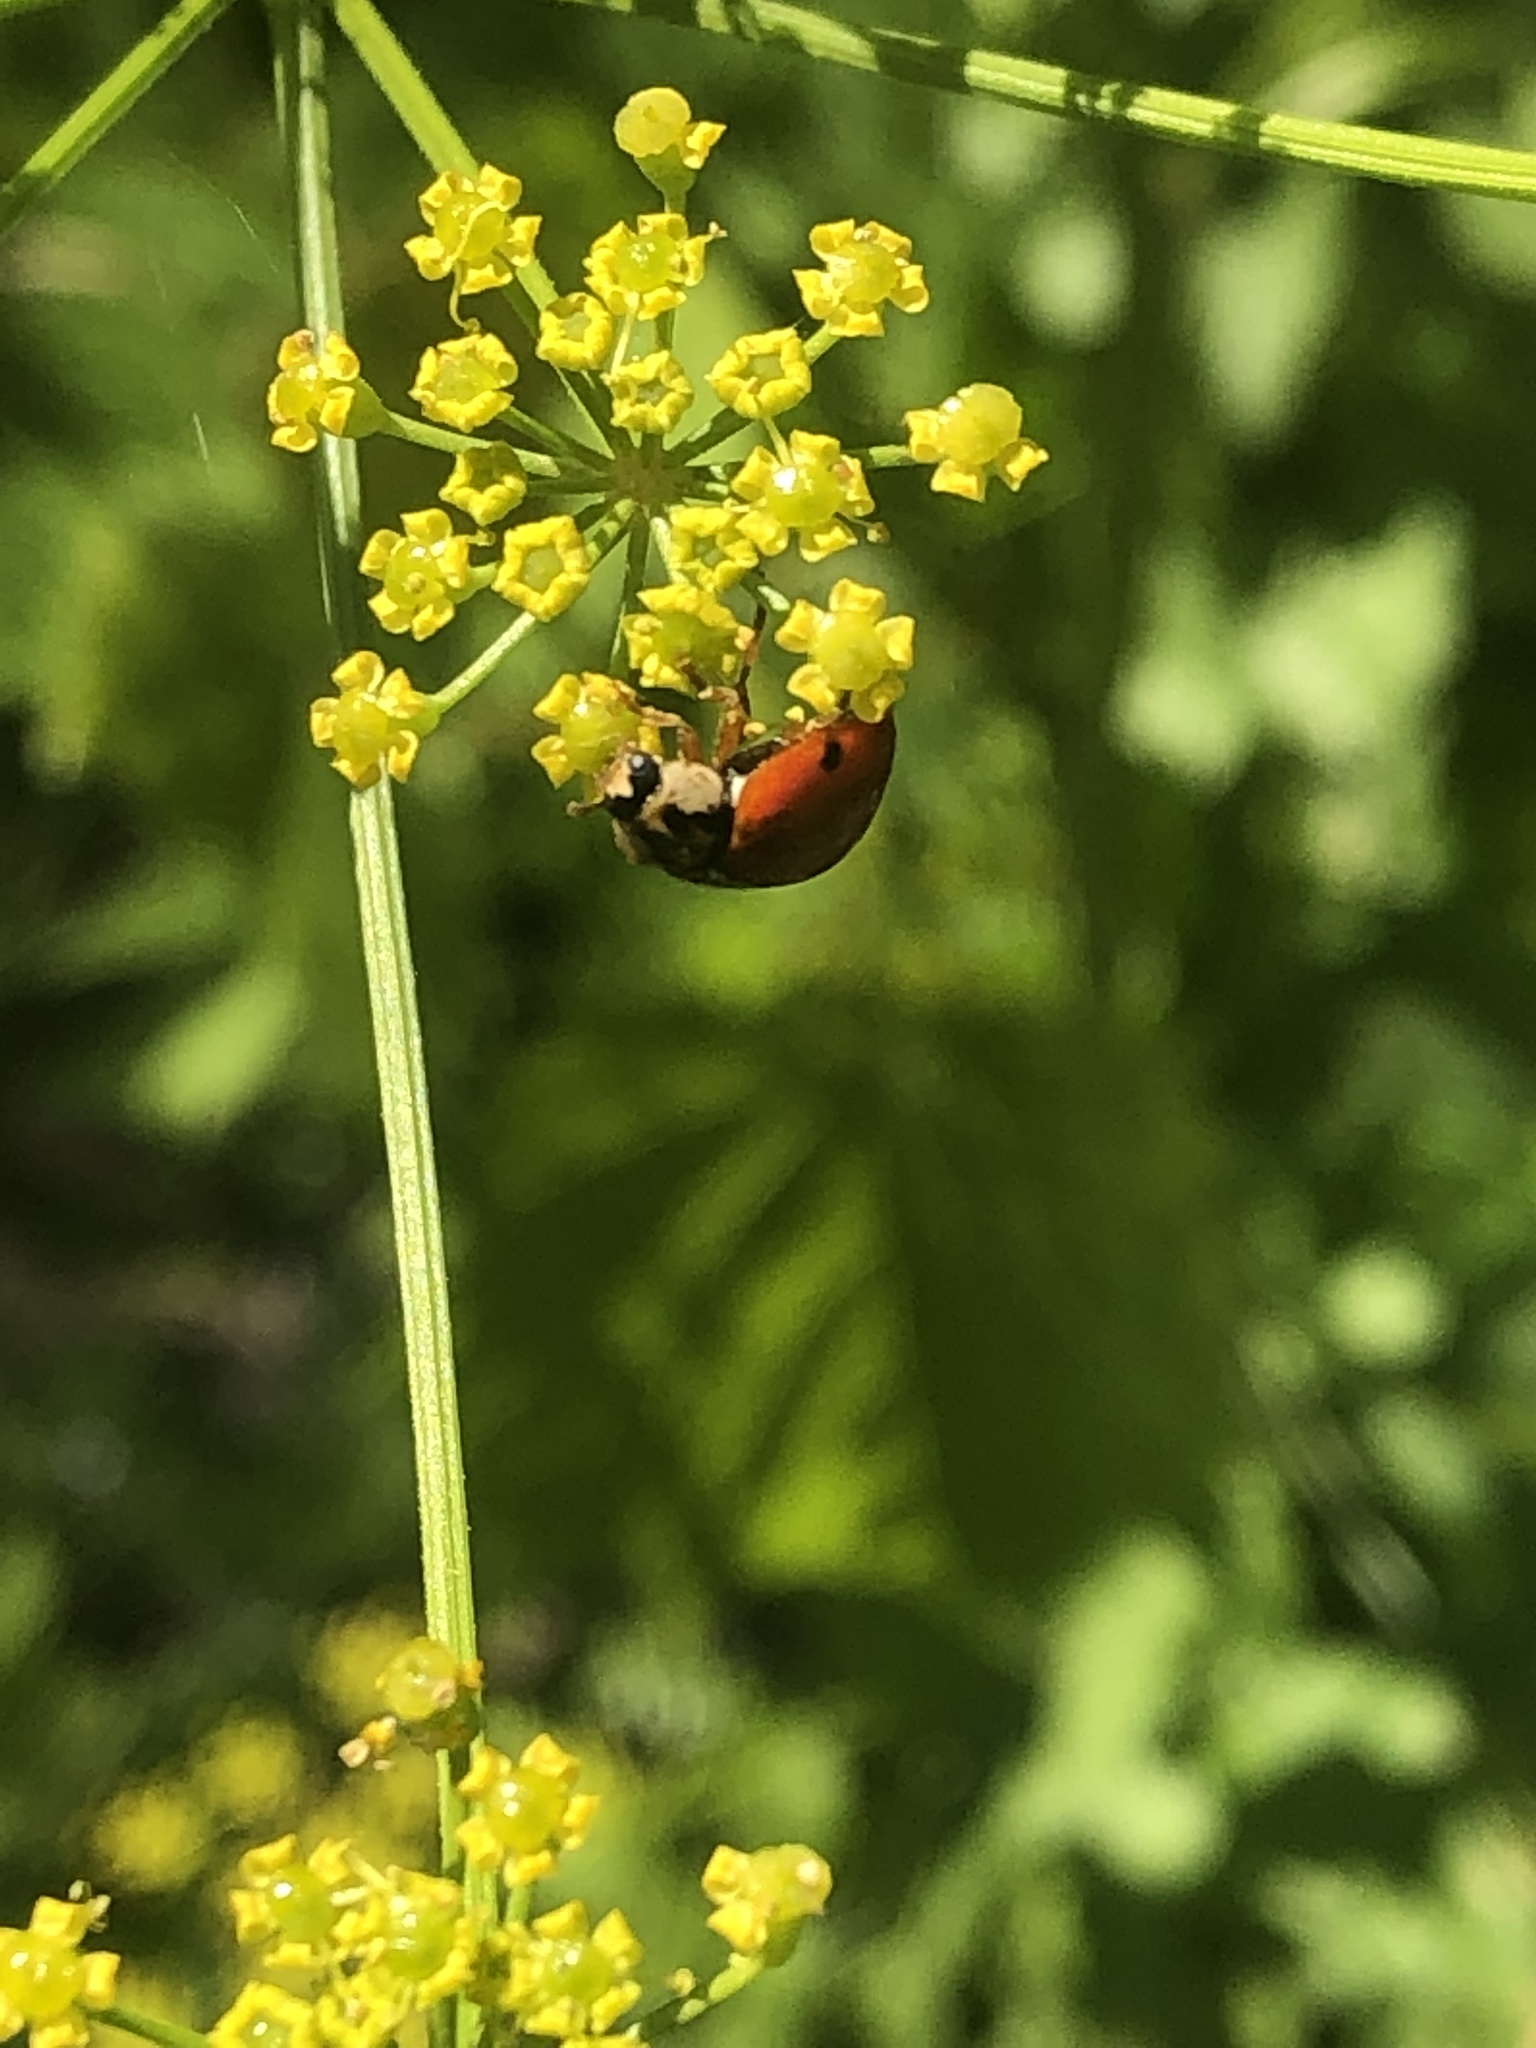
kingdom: Animalia
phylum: Arthropoda
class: Insecta
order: Coleoptera
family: Coccinellidae
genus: Harmonia
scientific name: Harmonia axyridis
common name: Harlequin ladybird
